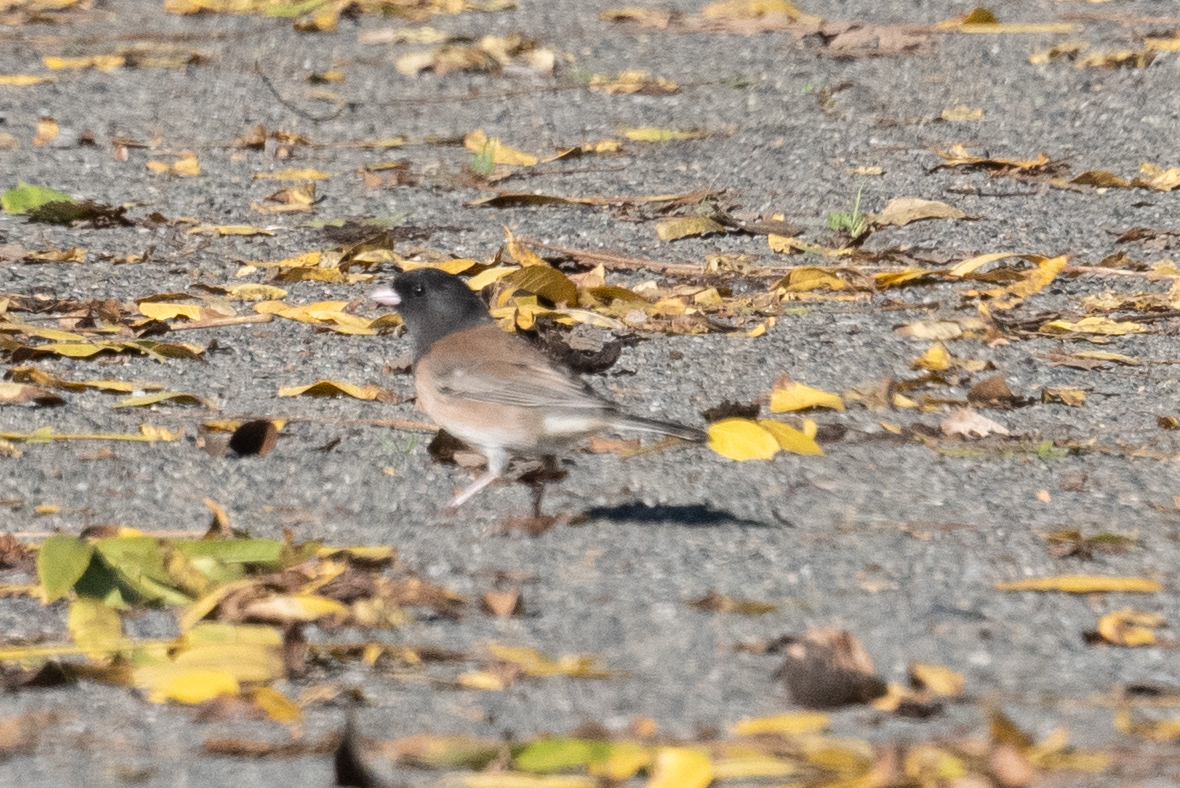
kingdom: Animalia
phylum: Chordata
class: Aves
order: Passeriformes
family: Passerellidae
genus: Junco
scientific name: Junco hyemalis
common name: Dark-eyed junco
